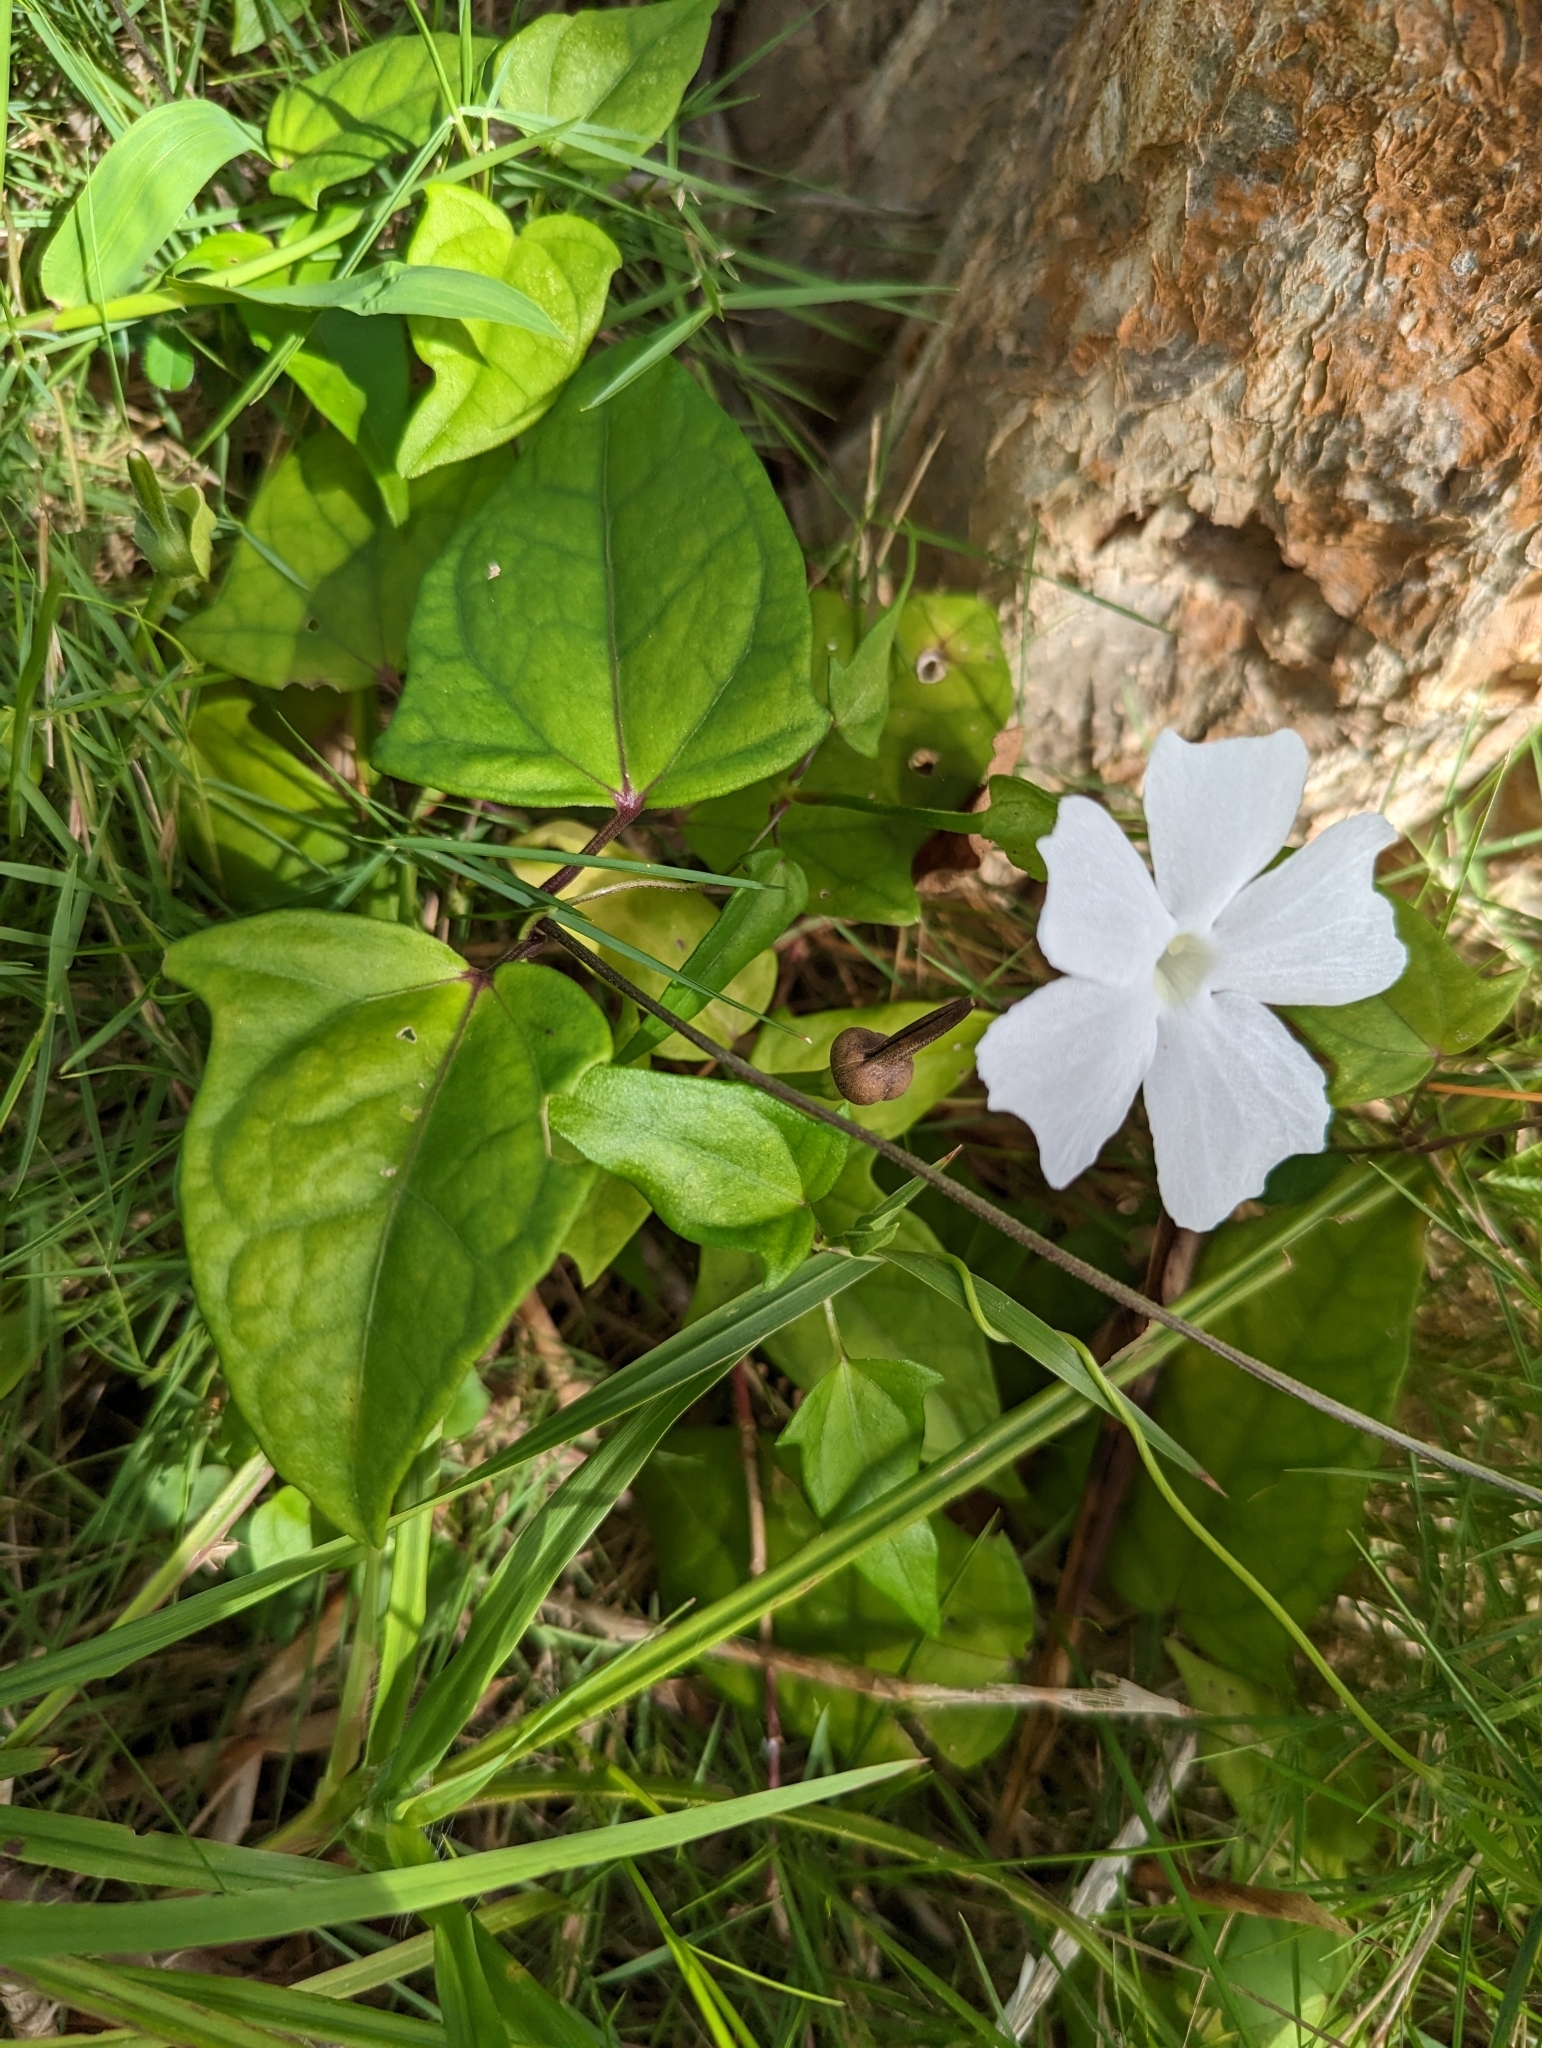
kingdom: Plantae
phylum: Tracheophyta
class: Magnoliopsida
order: Lamiales
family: Acanthaceae
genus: Thunbergia
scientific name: Thunbergia fragrans
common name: Whitelady
